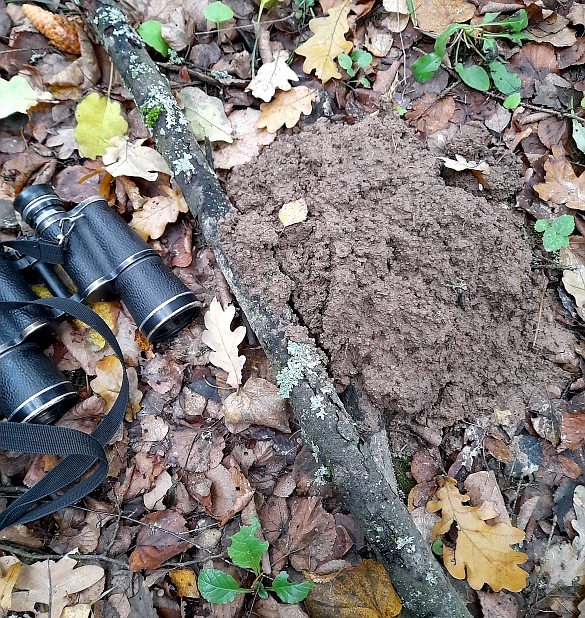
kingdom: Animalia
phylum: Chordata
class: Mammalia
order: Soricomorpha
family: Talpidae
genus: Talpa
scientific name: Talpa europaea
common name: European mole
